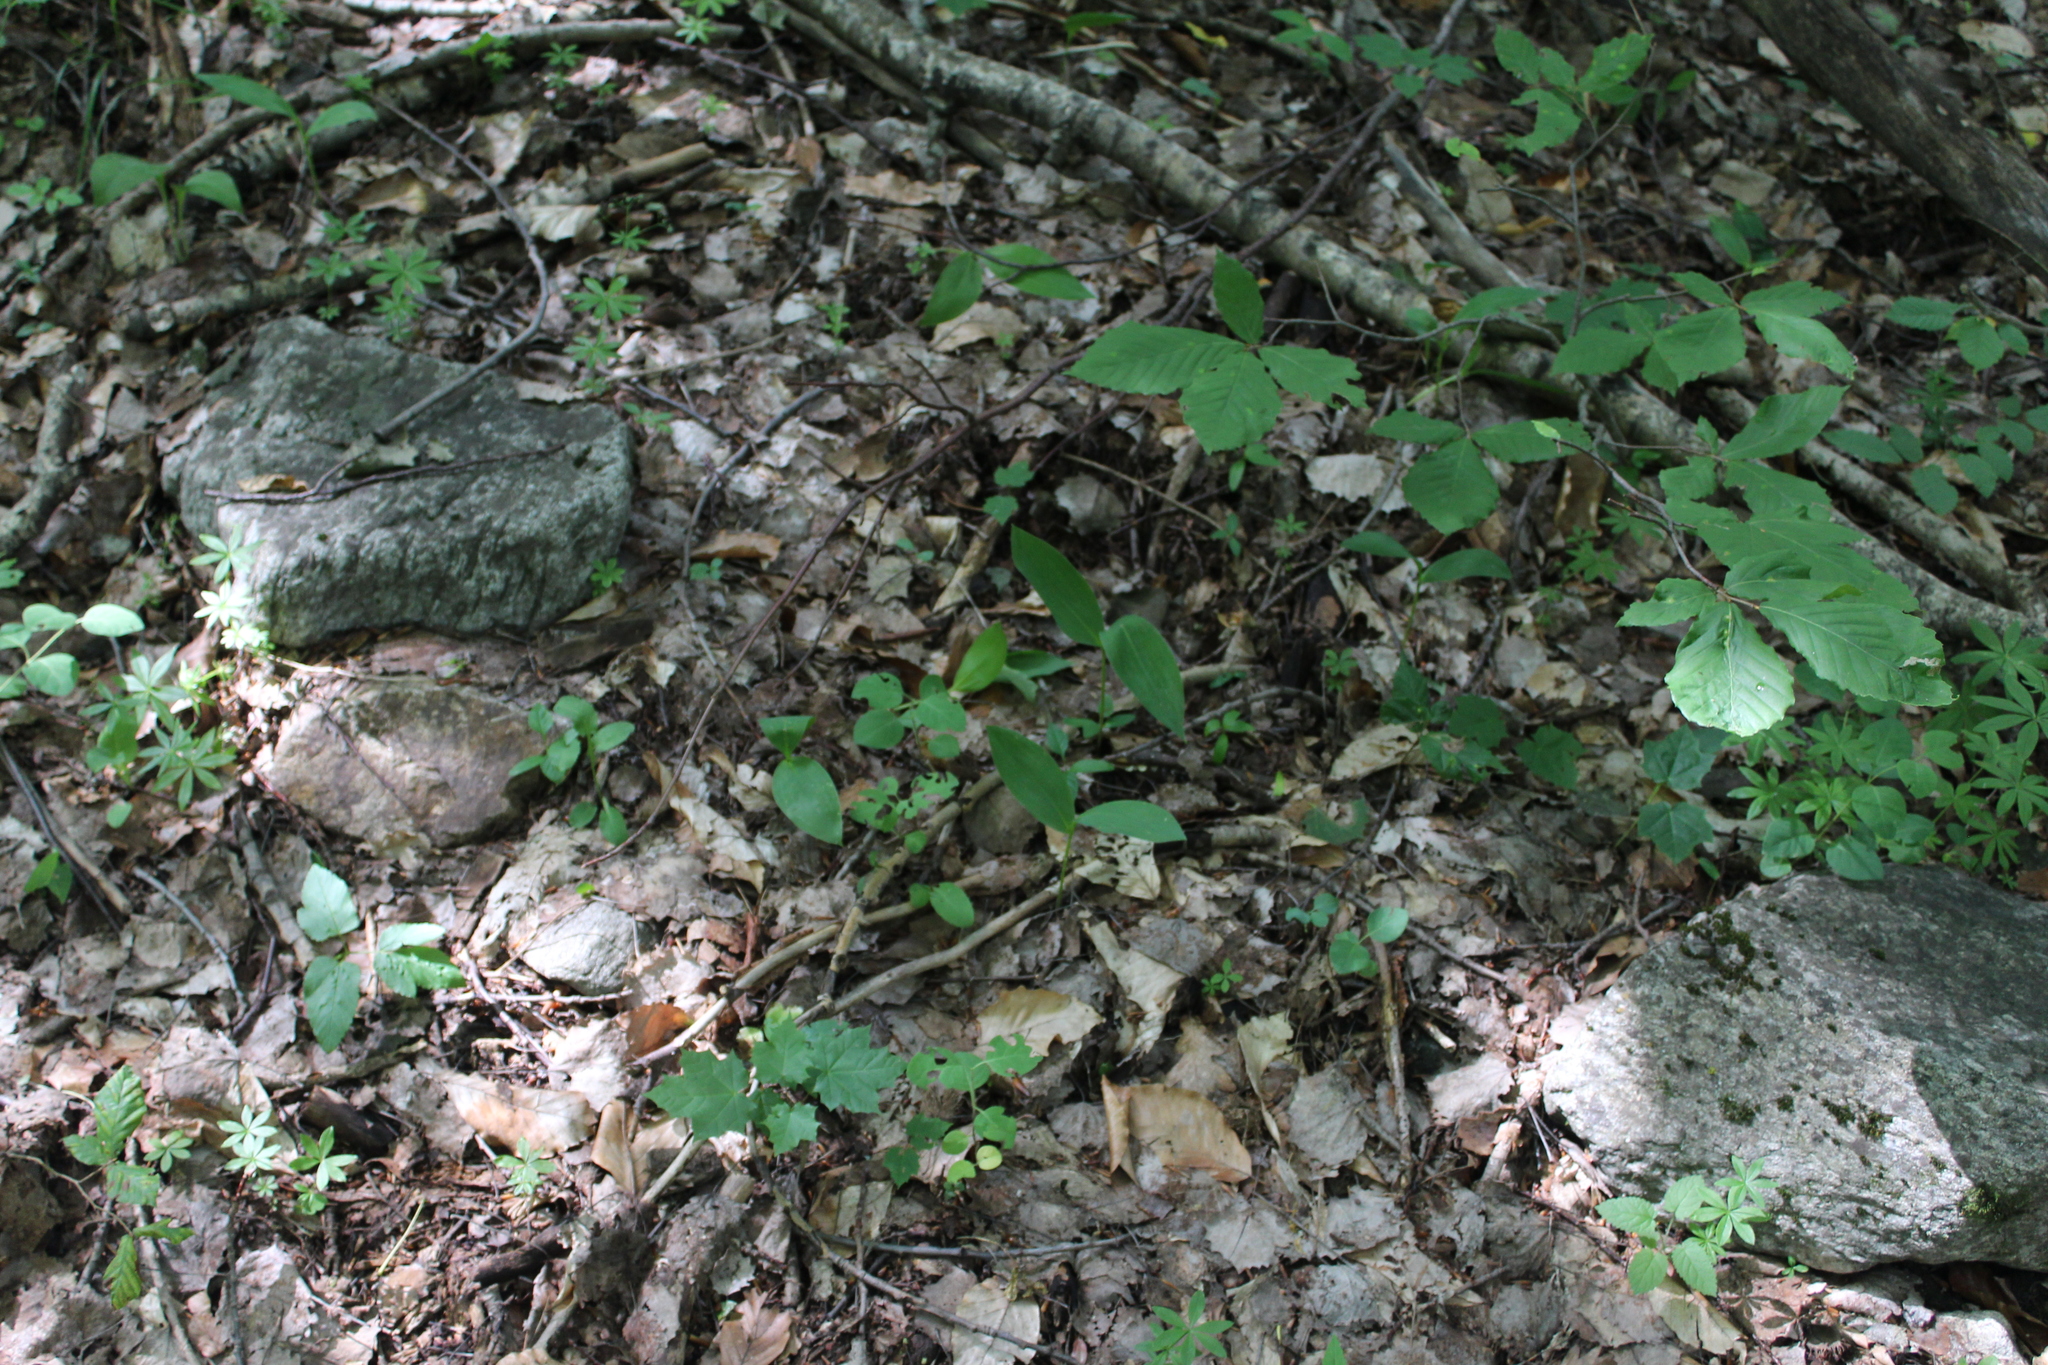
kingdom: Plantae
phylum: Tracheophyta
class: Liliopsida
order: Asparagales
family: Asparagaceae
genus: Convallaria
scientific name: Convallaria majalis
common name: Lily-of-the-valley
